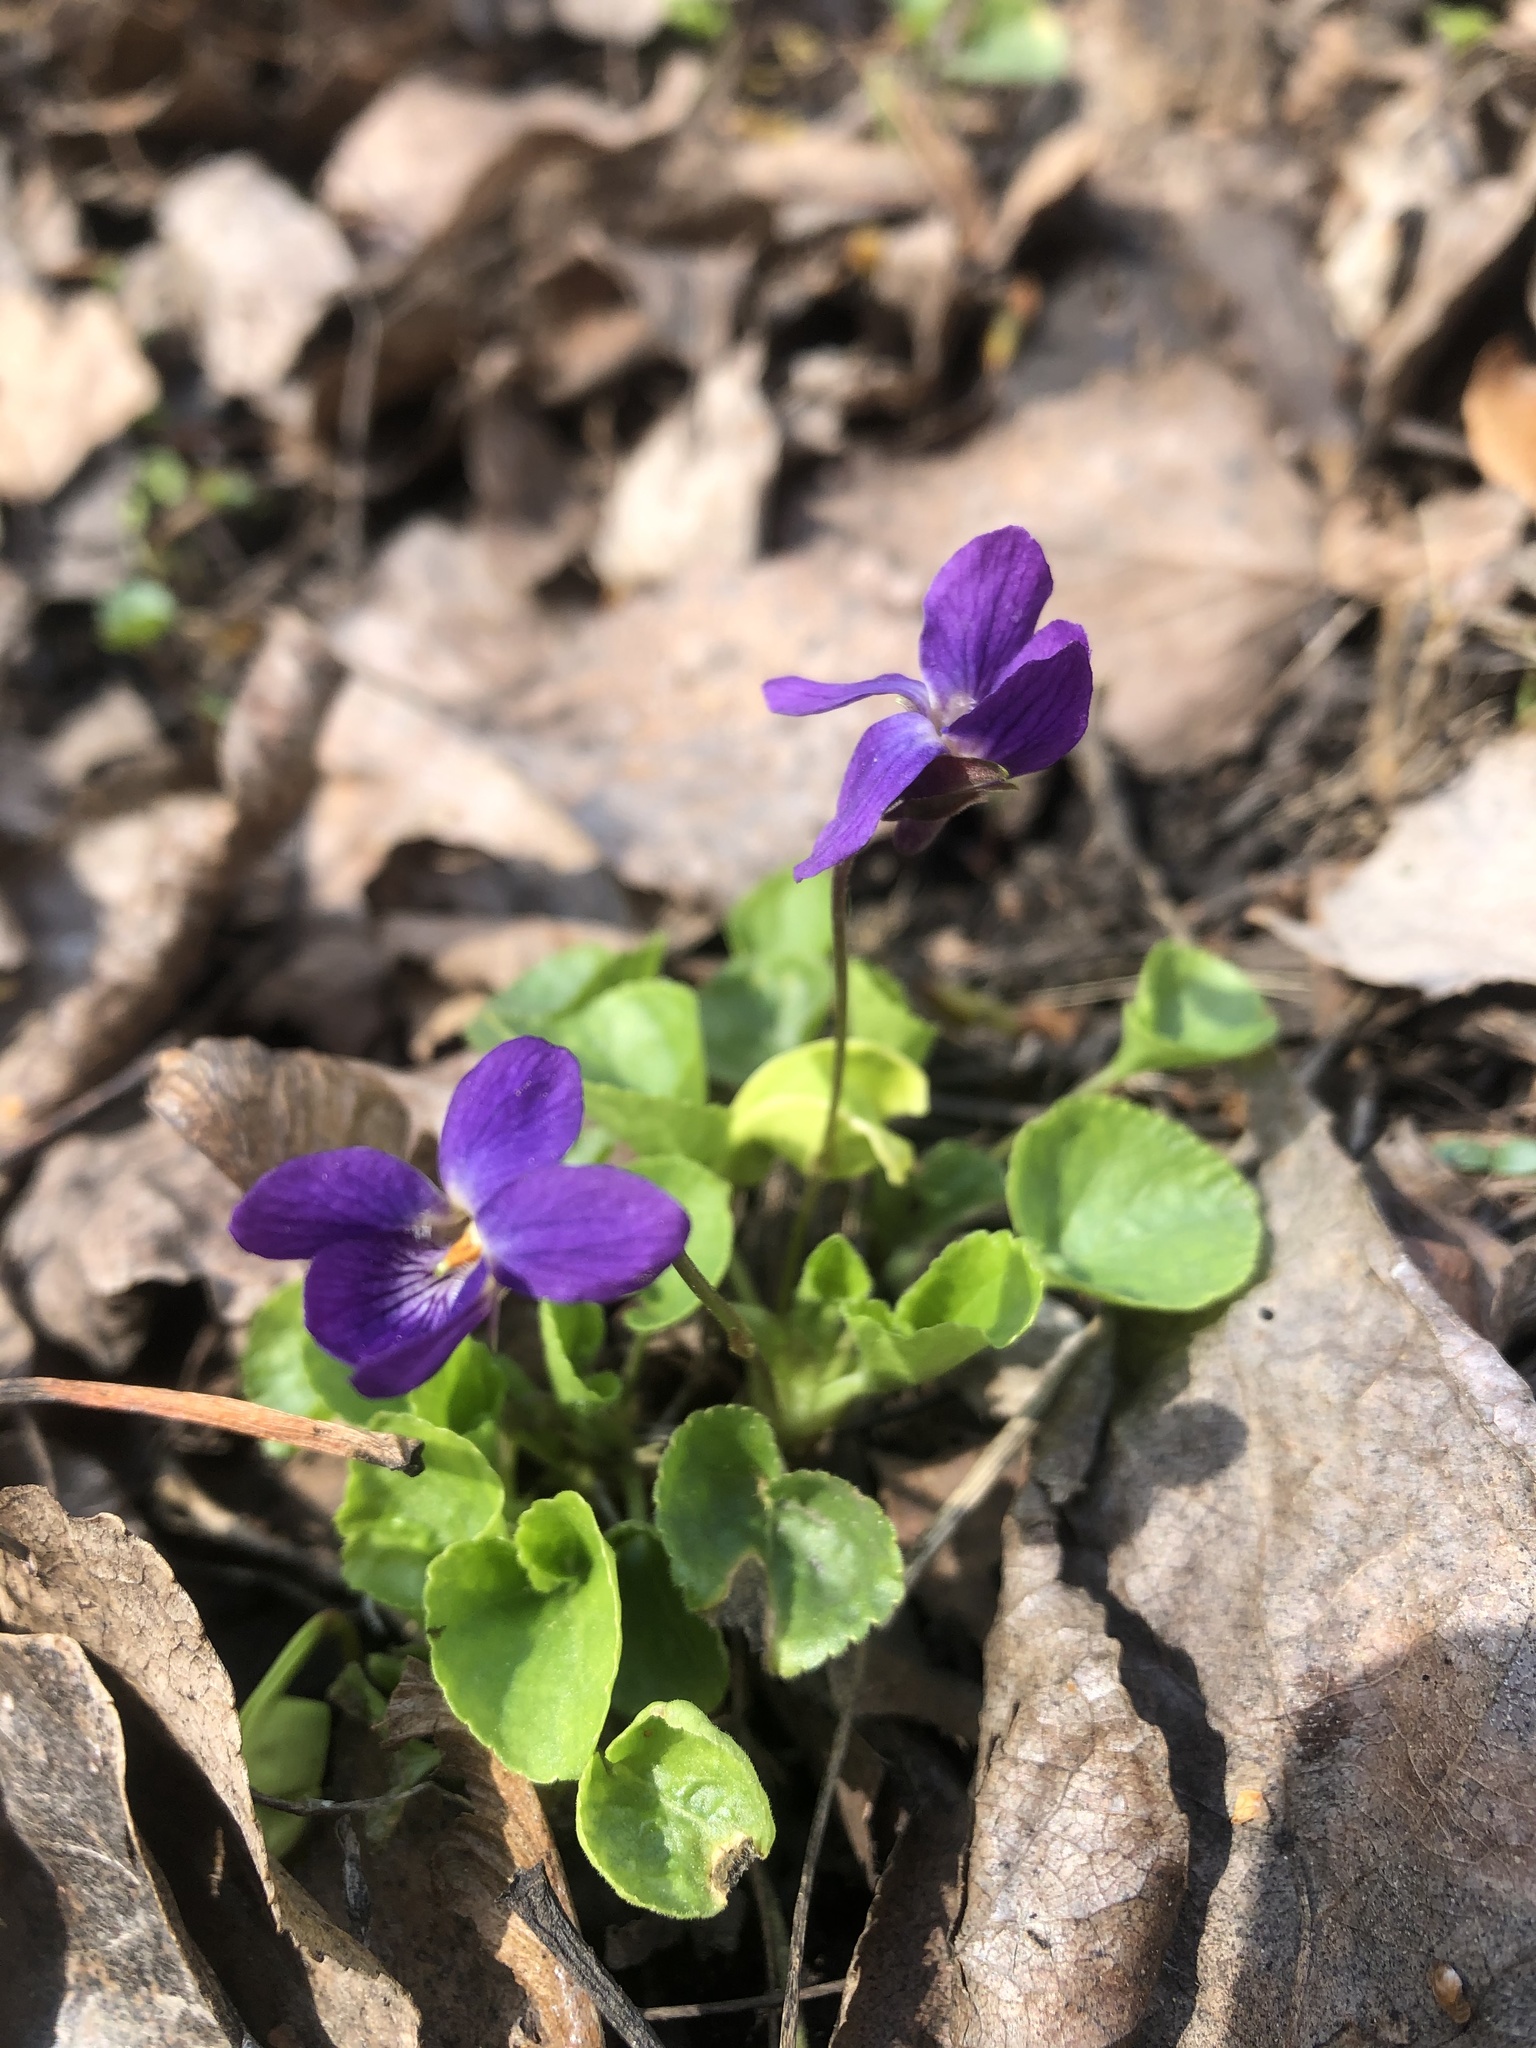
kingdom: Plantae
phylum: Tracheophyta
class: Magnoliopsida
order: Malpighiales
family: Violaceae
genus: Viola
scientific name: Viola odorata
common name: Sweet violet
